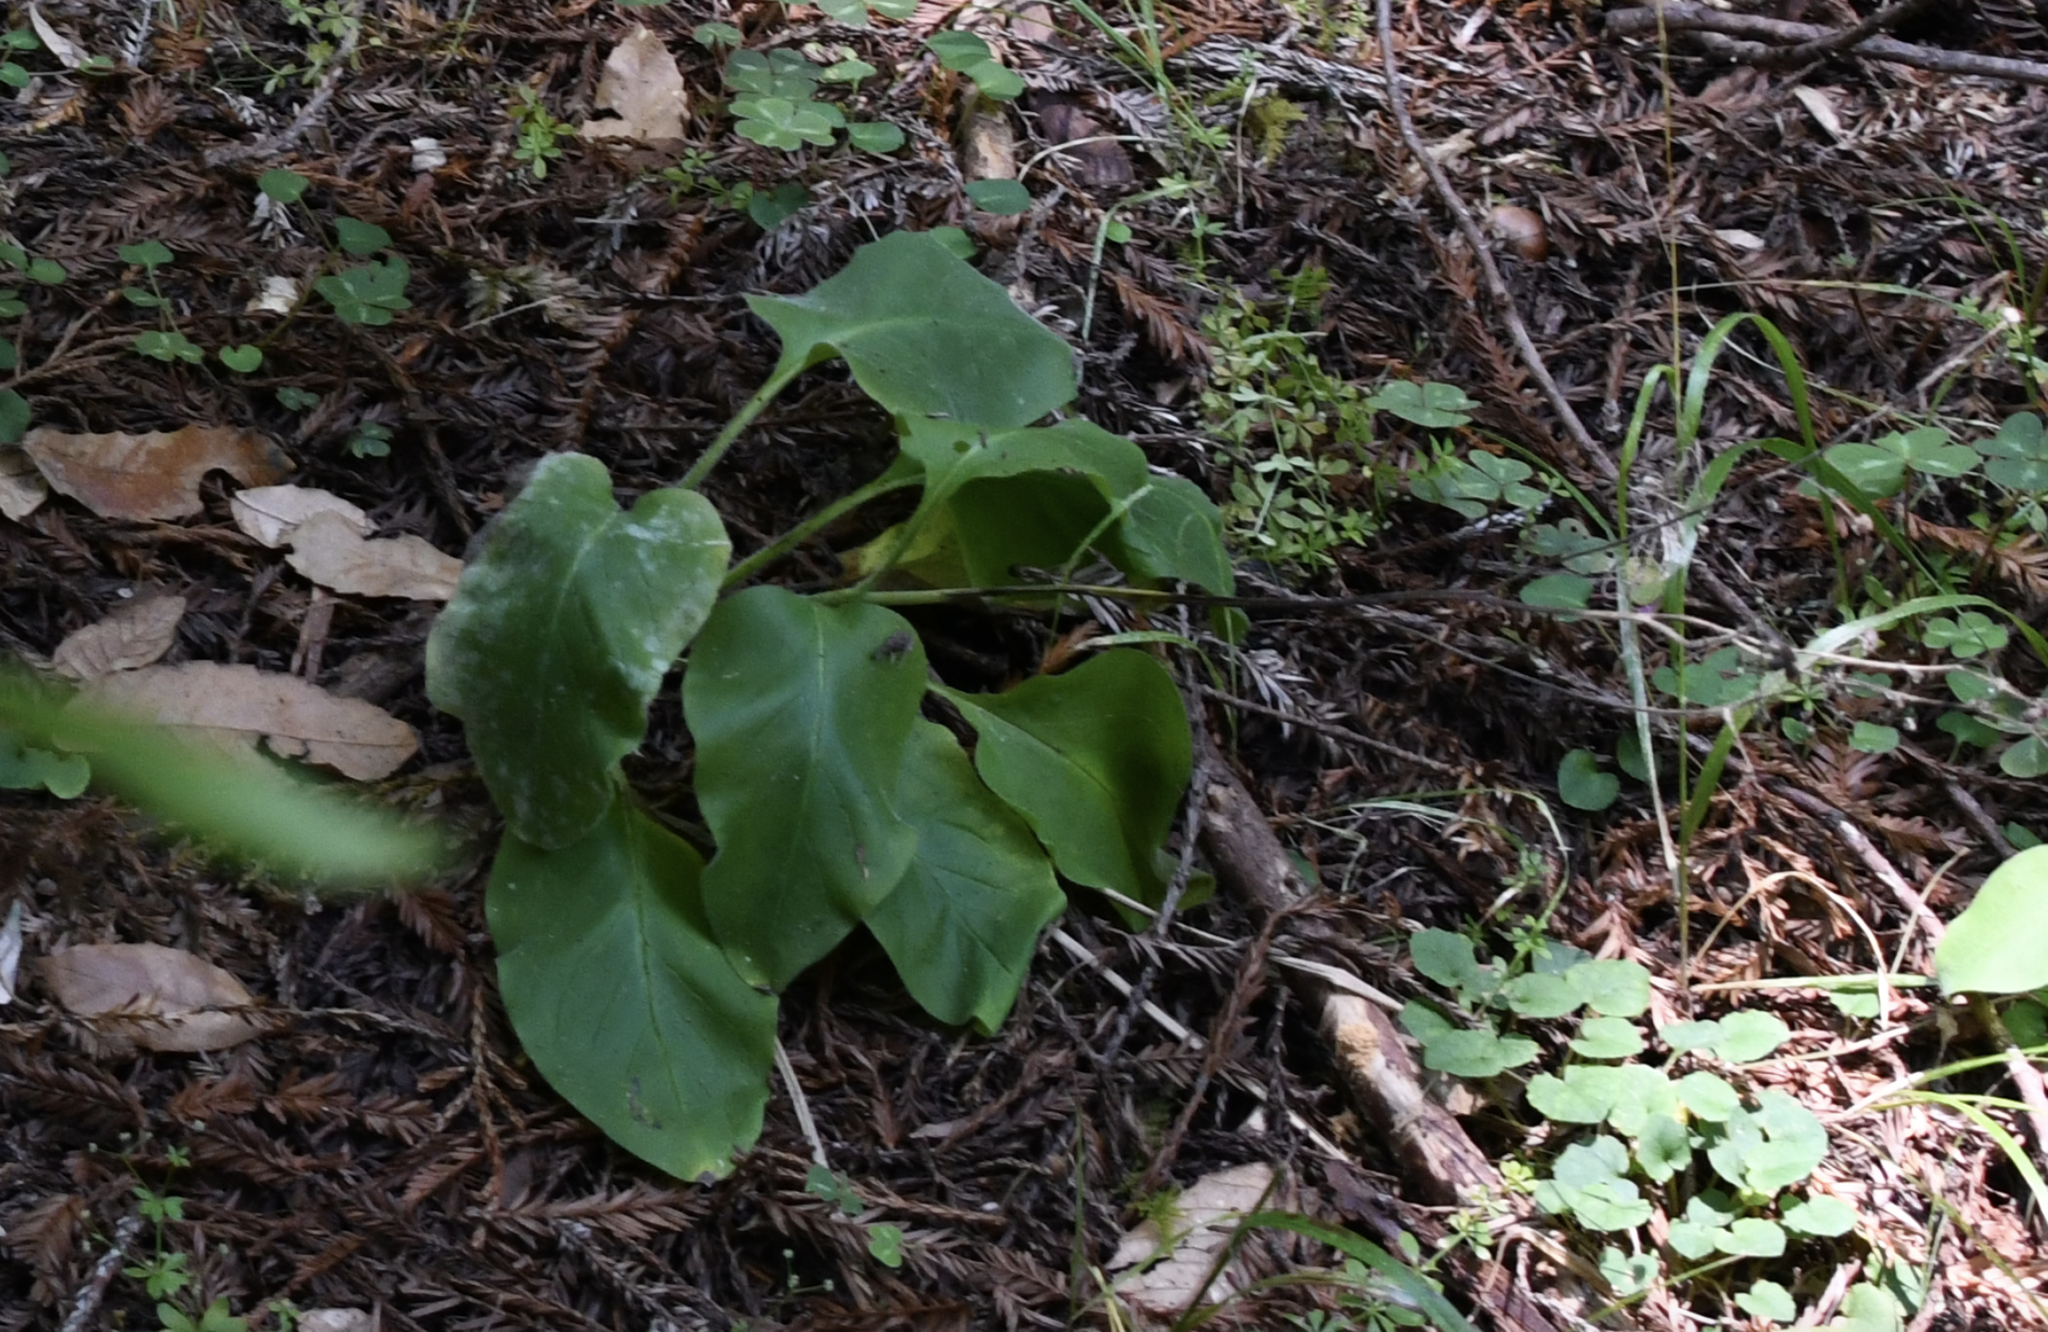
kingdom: Plantae
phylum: Tracheophyta
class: Magnoliopsida
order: Boraginales
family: Boraginaceae
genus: Adelinia
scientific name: Adelinia grande
